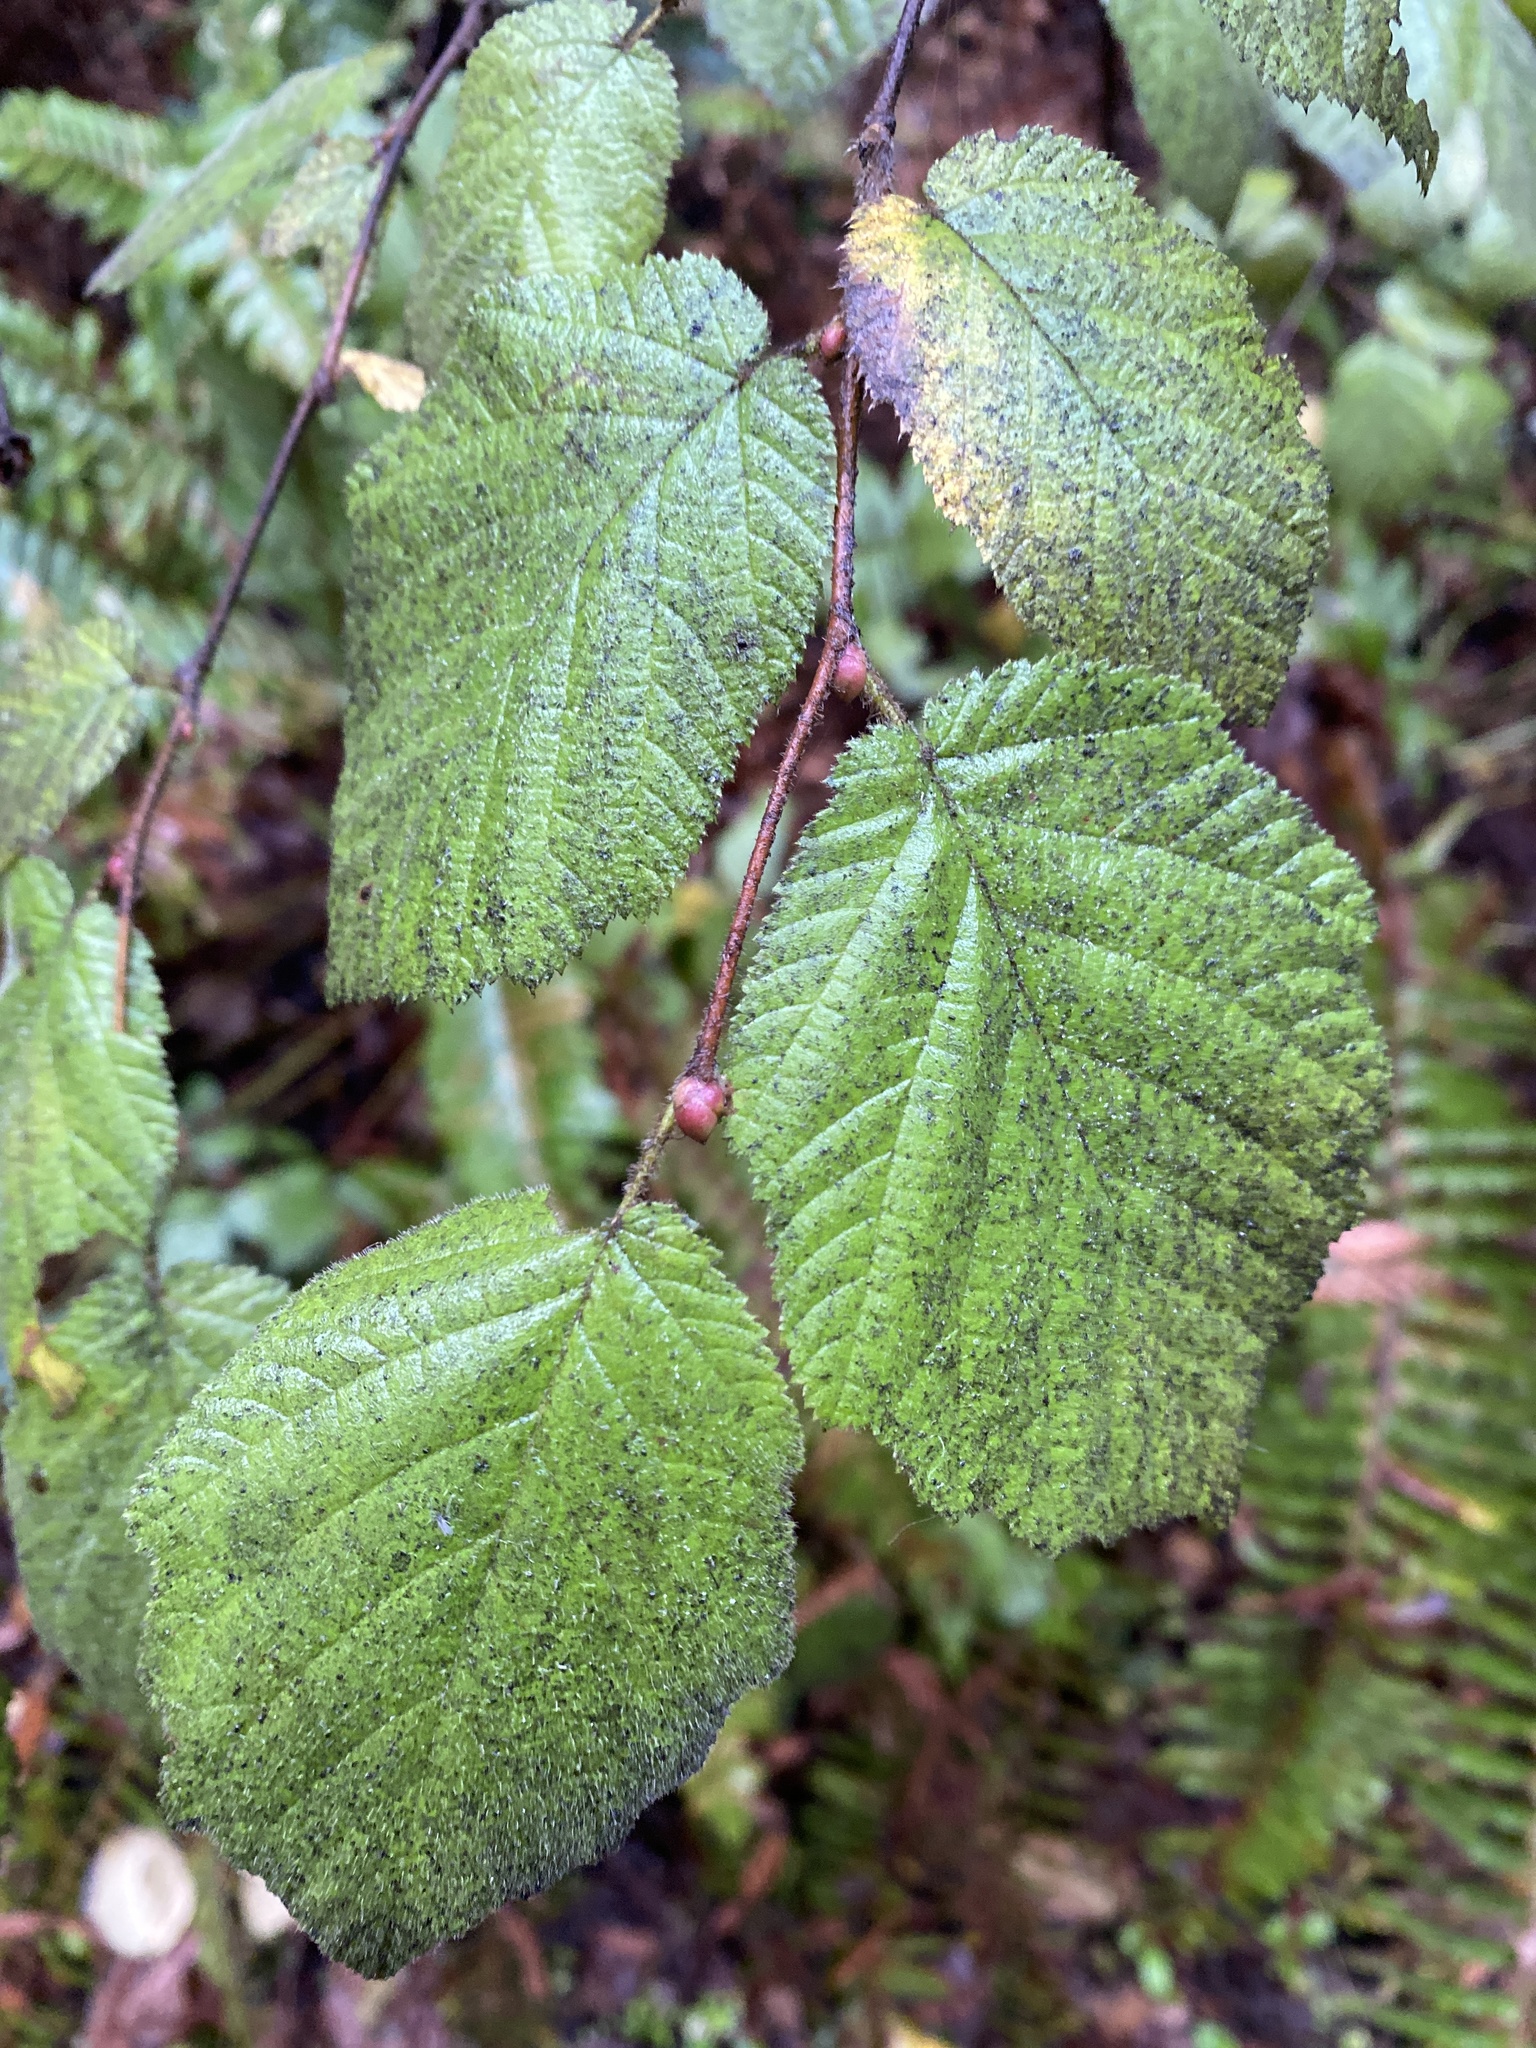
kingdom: Plantae
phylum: Tracheophyta
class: Magnoliopsida
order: Fagales
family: Betulaceae
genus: Corylus
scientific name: Corylus cornuta
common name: Beaked hazel
